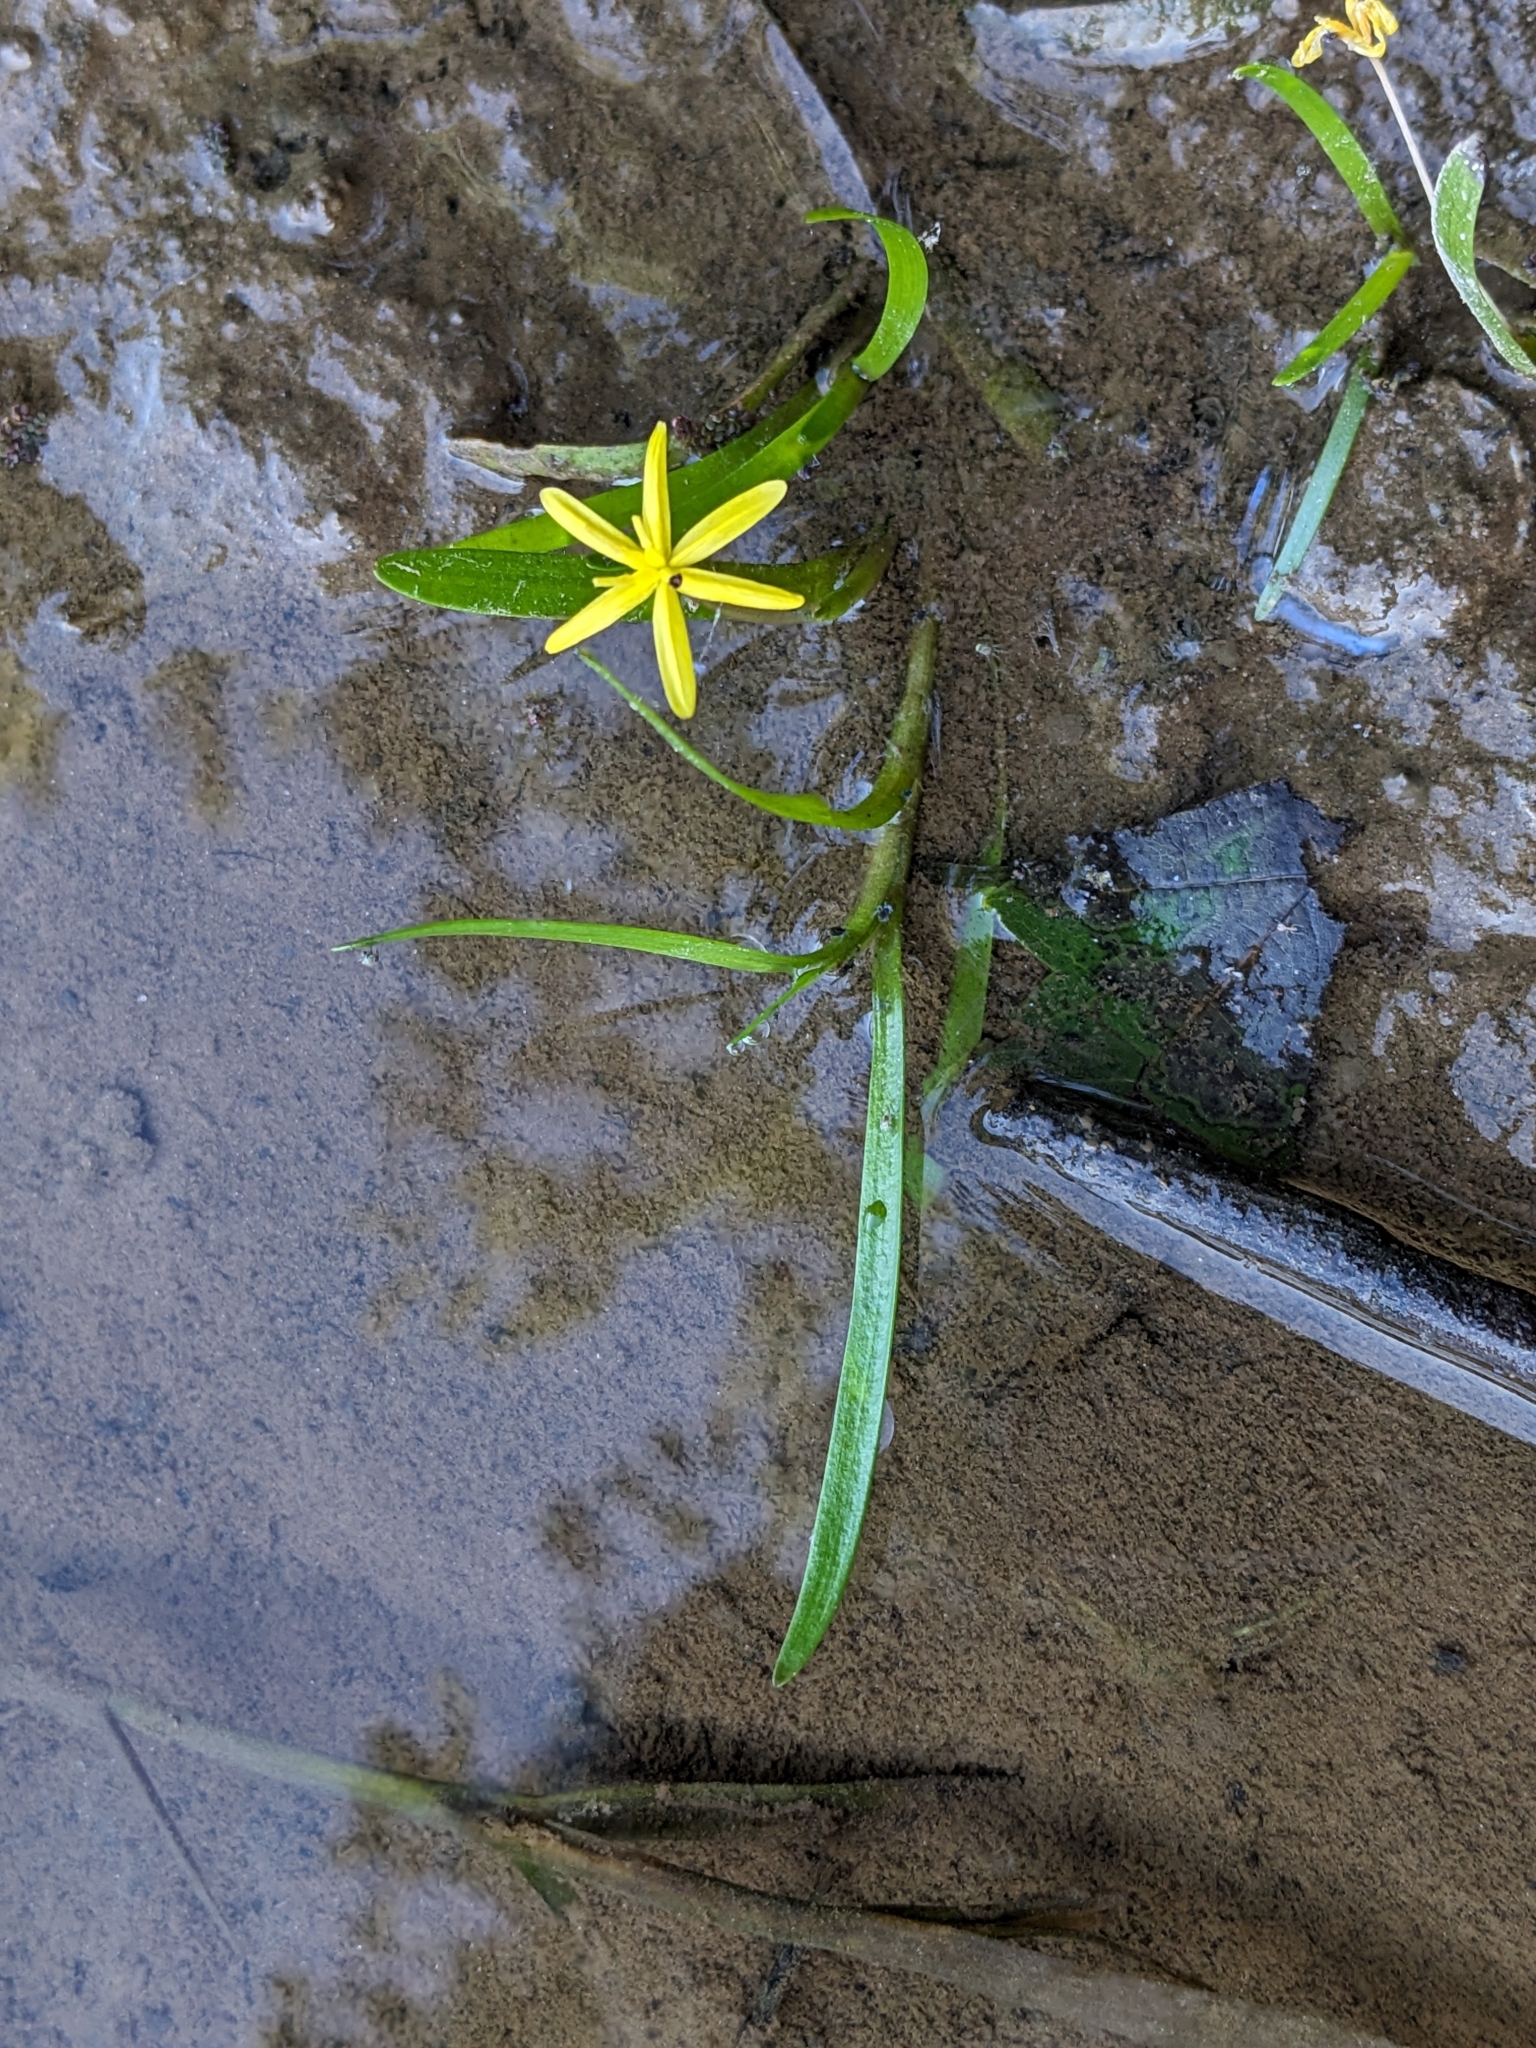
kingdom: Plantae
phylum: Tracheophyta
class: Liliopsida
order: Commelinales
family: Pontederiaceae
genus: Heteranthera
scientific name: Heteranthera dubia
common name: Grass-leaved mud plantain
